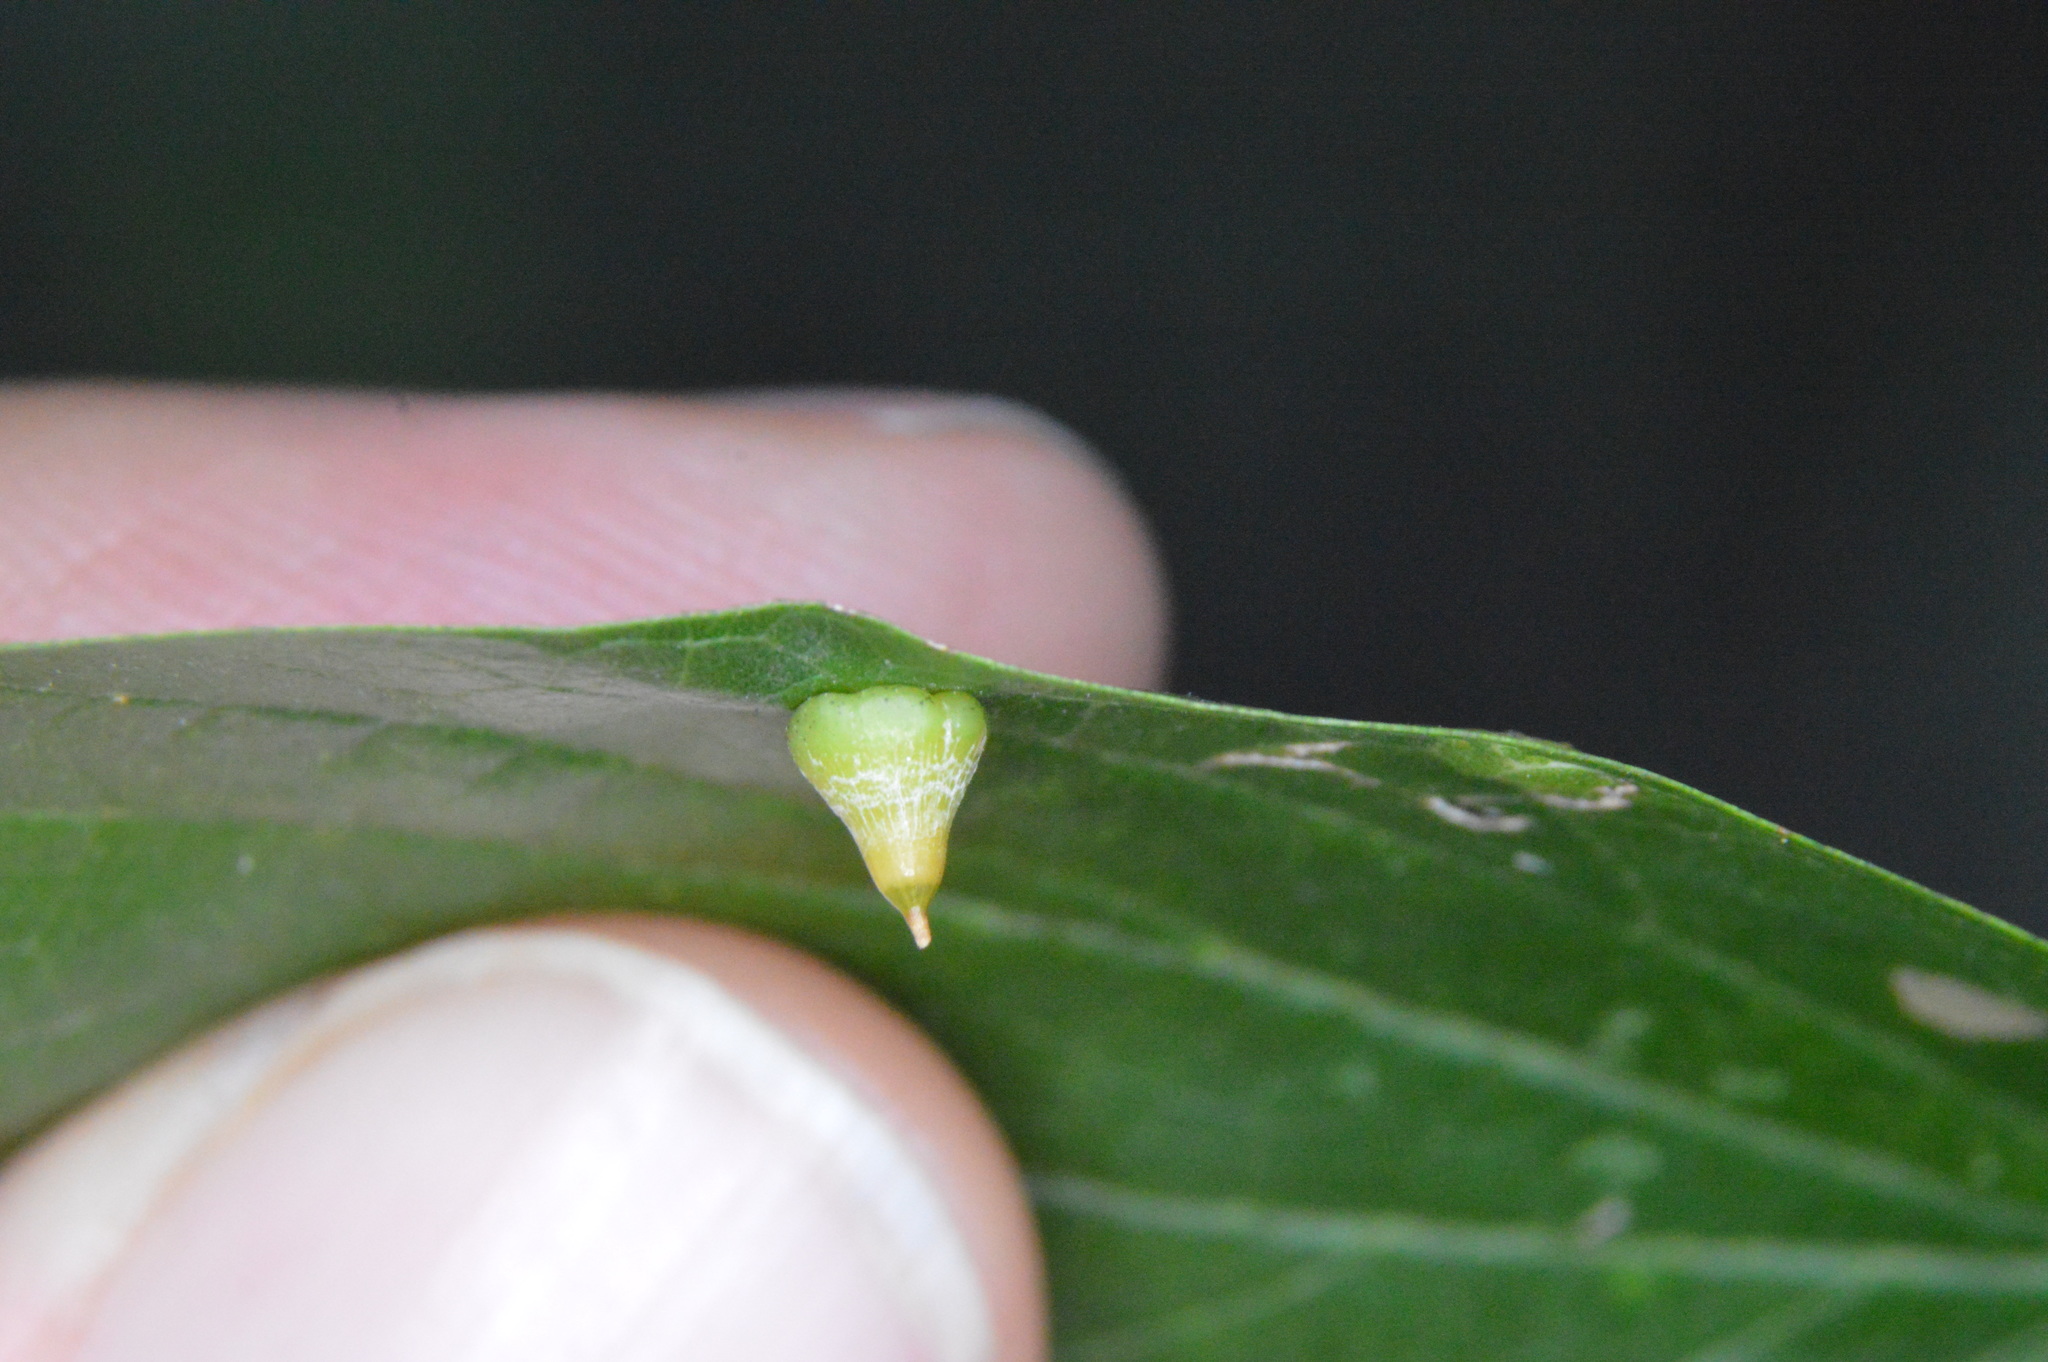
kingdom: Animalia
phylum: Arthropoda
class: Insecta
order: Diptera
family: Cecidomyiidae
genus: Celticecis
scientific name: Celticecis spiniformis
